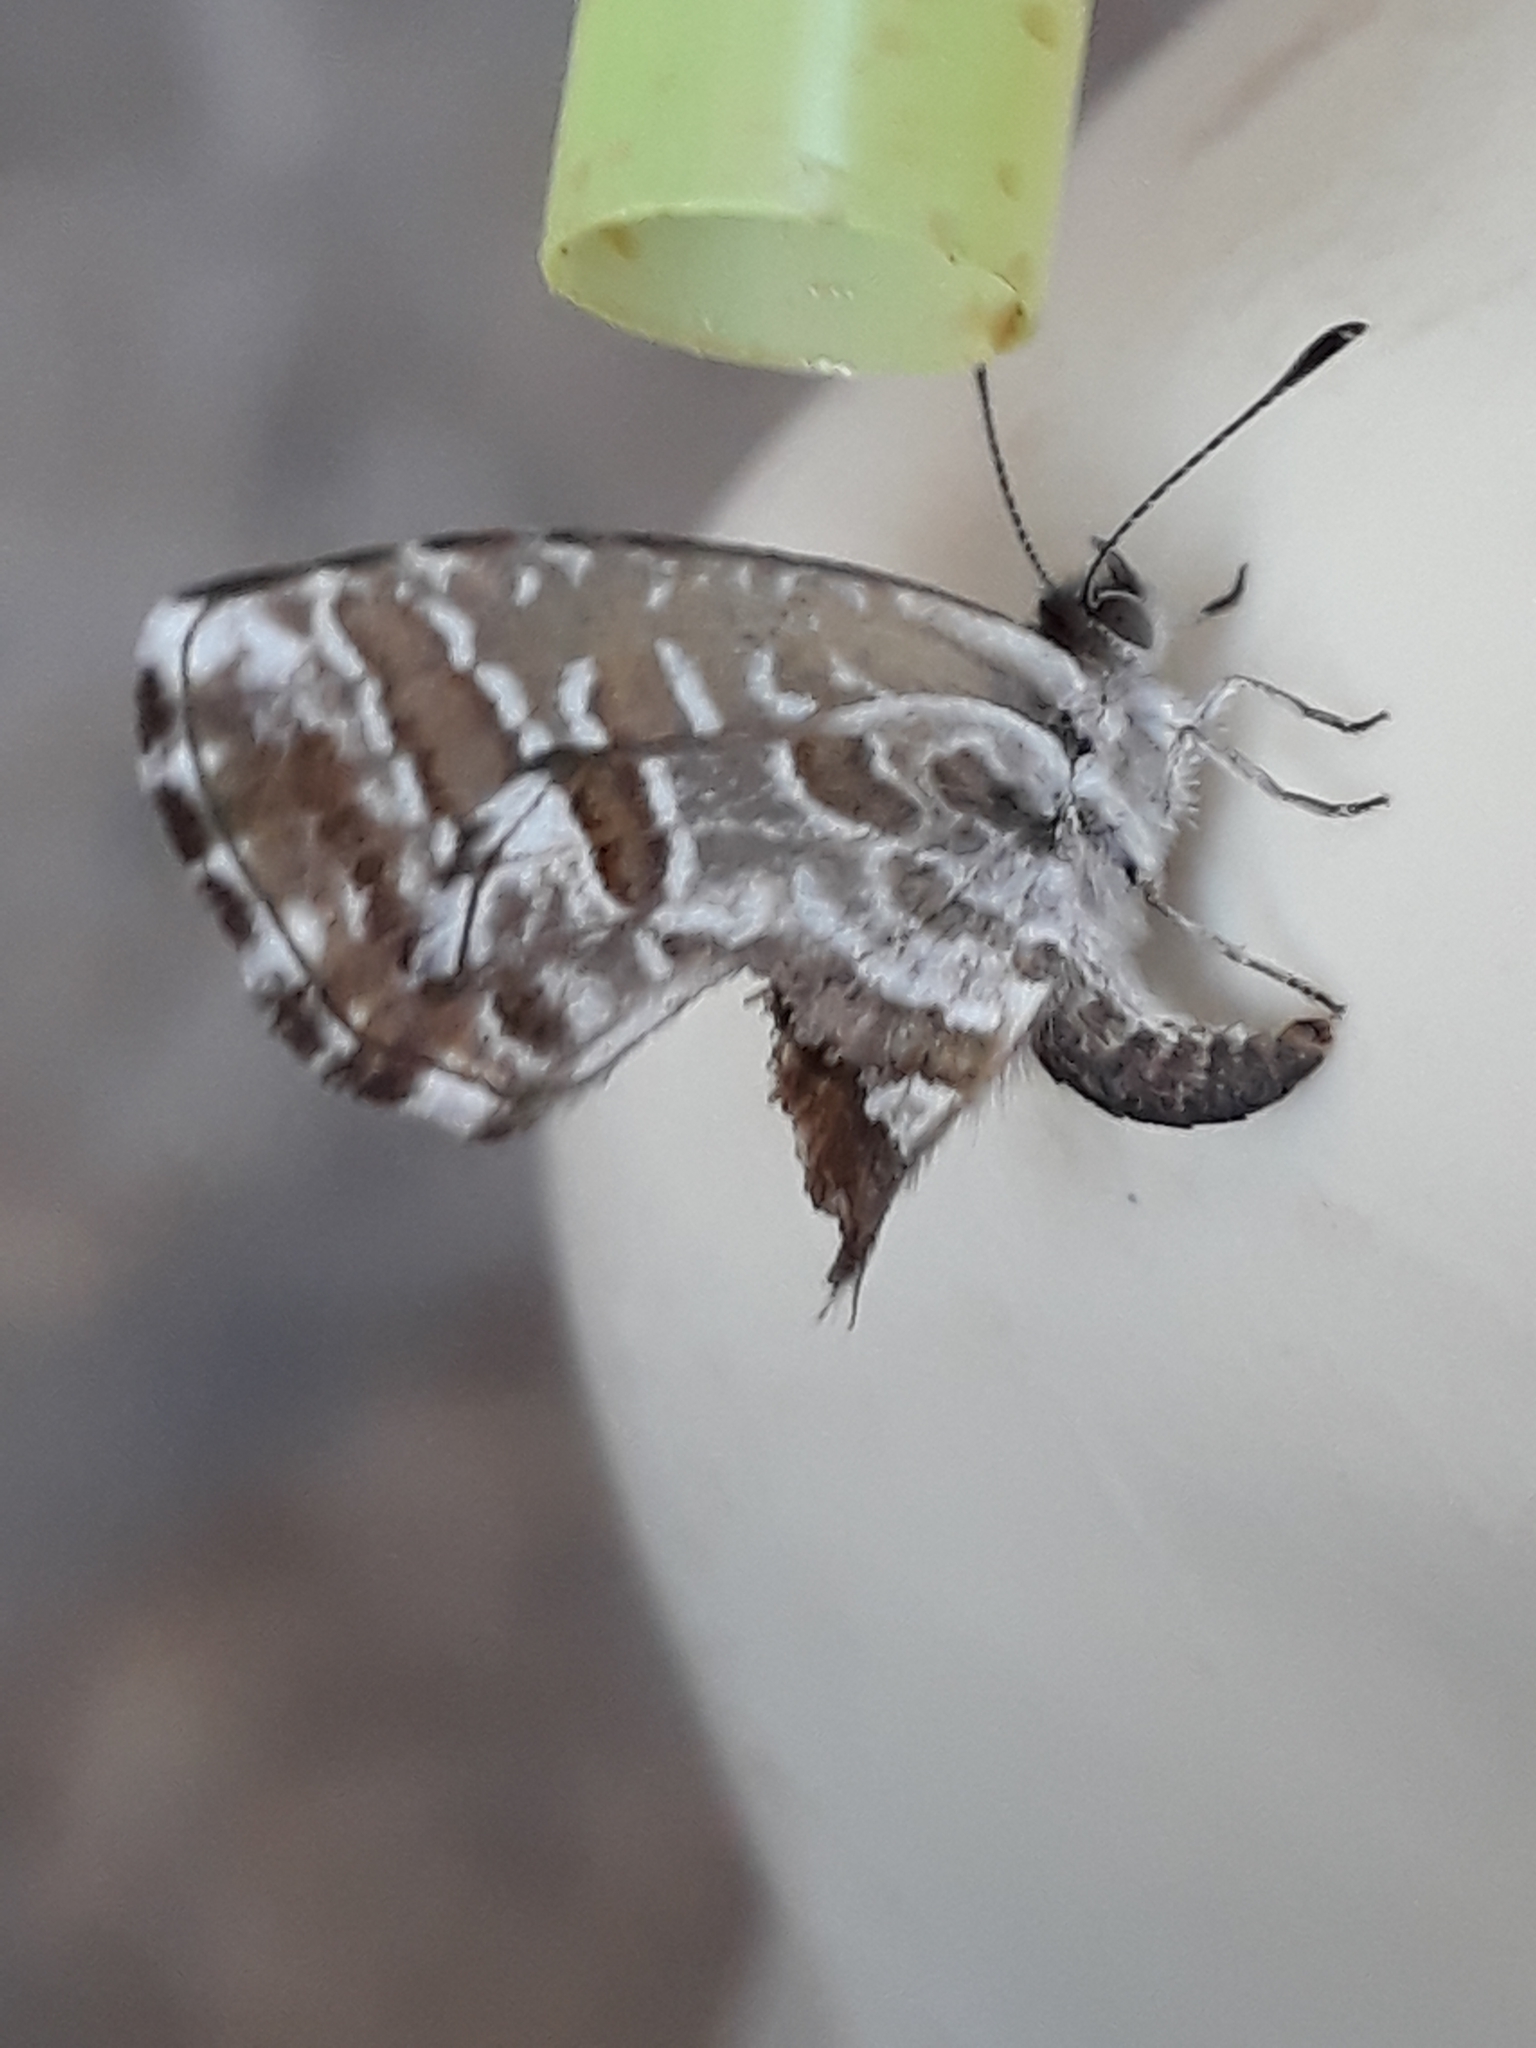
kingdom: Animalia
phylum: Arthropoda
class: Insecta
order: Lepidoptera
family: Lycaenidae
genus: Cacyreus
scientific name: Cacyreus marshalli
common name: Geranium bronze
